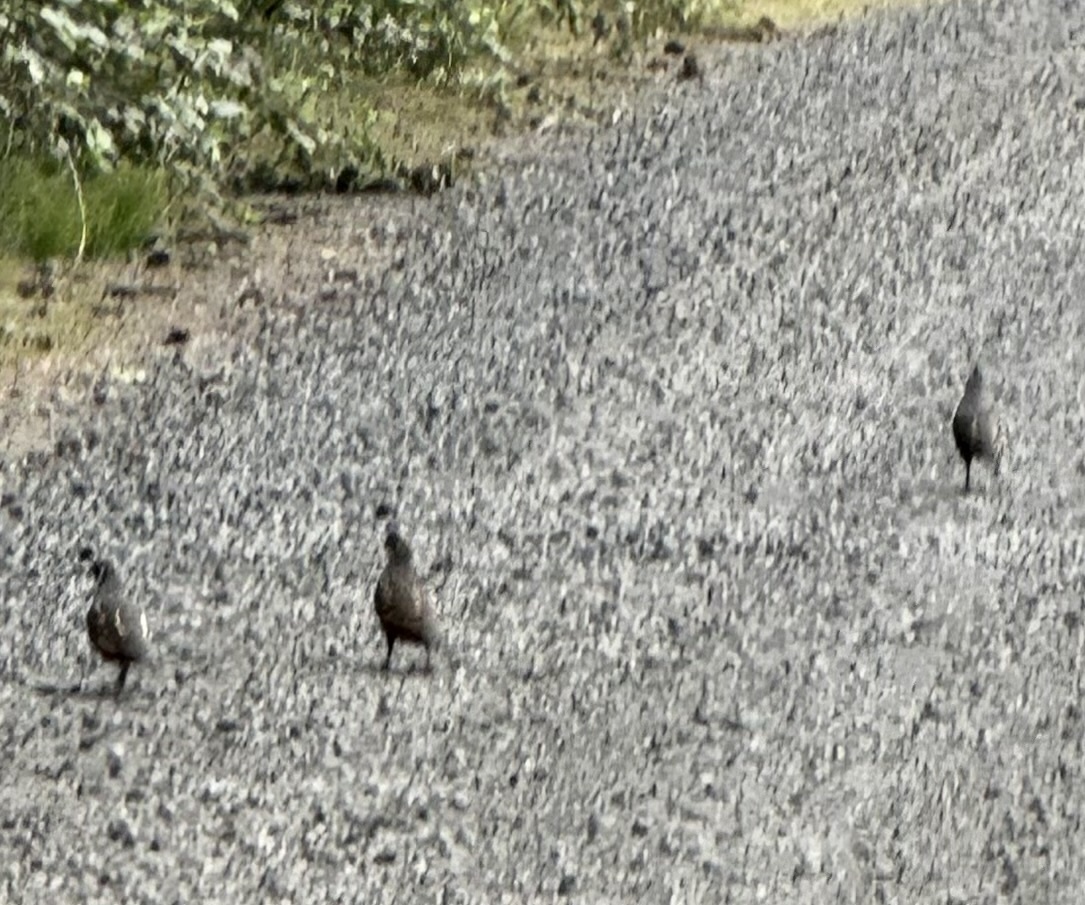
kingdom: Animalia
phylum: Chordata
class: Aves
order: Galliformes
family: Odontophoridae
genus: Callipepla
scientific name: Callipepla californica
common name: California quail
